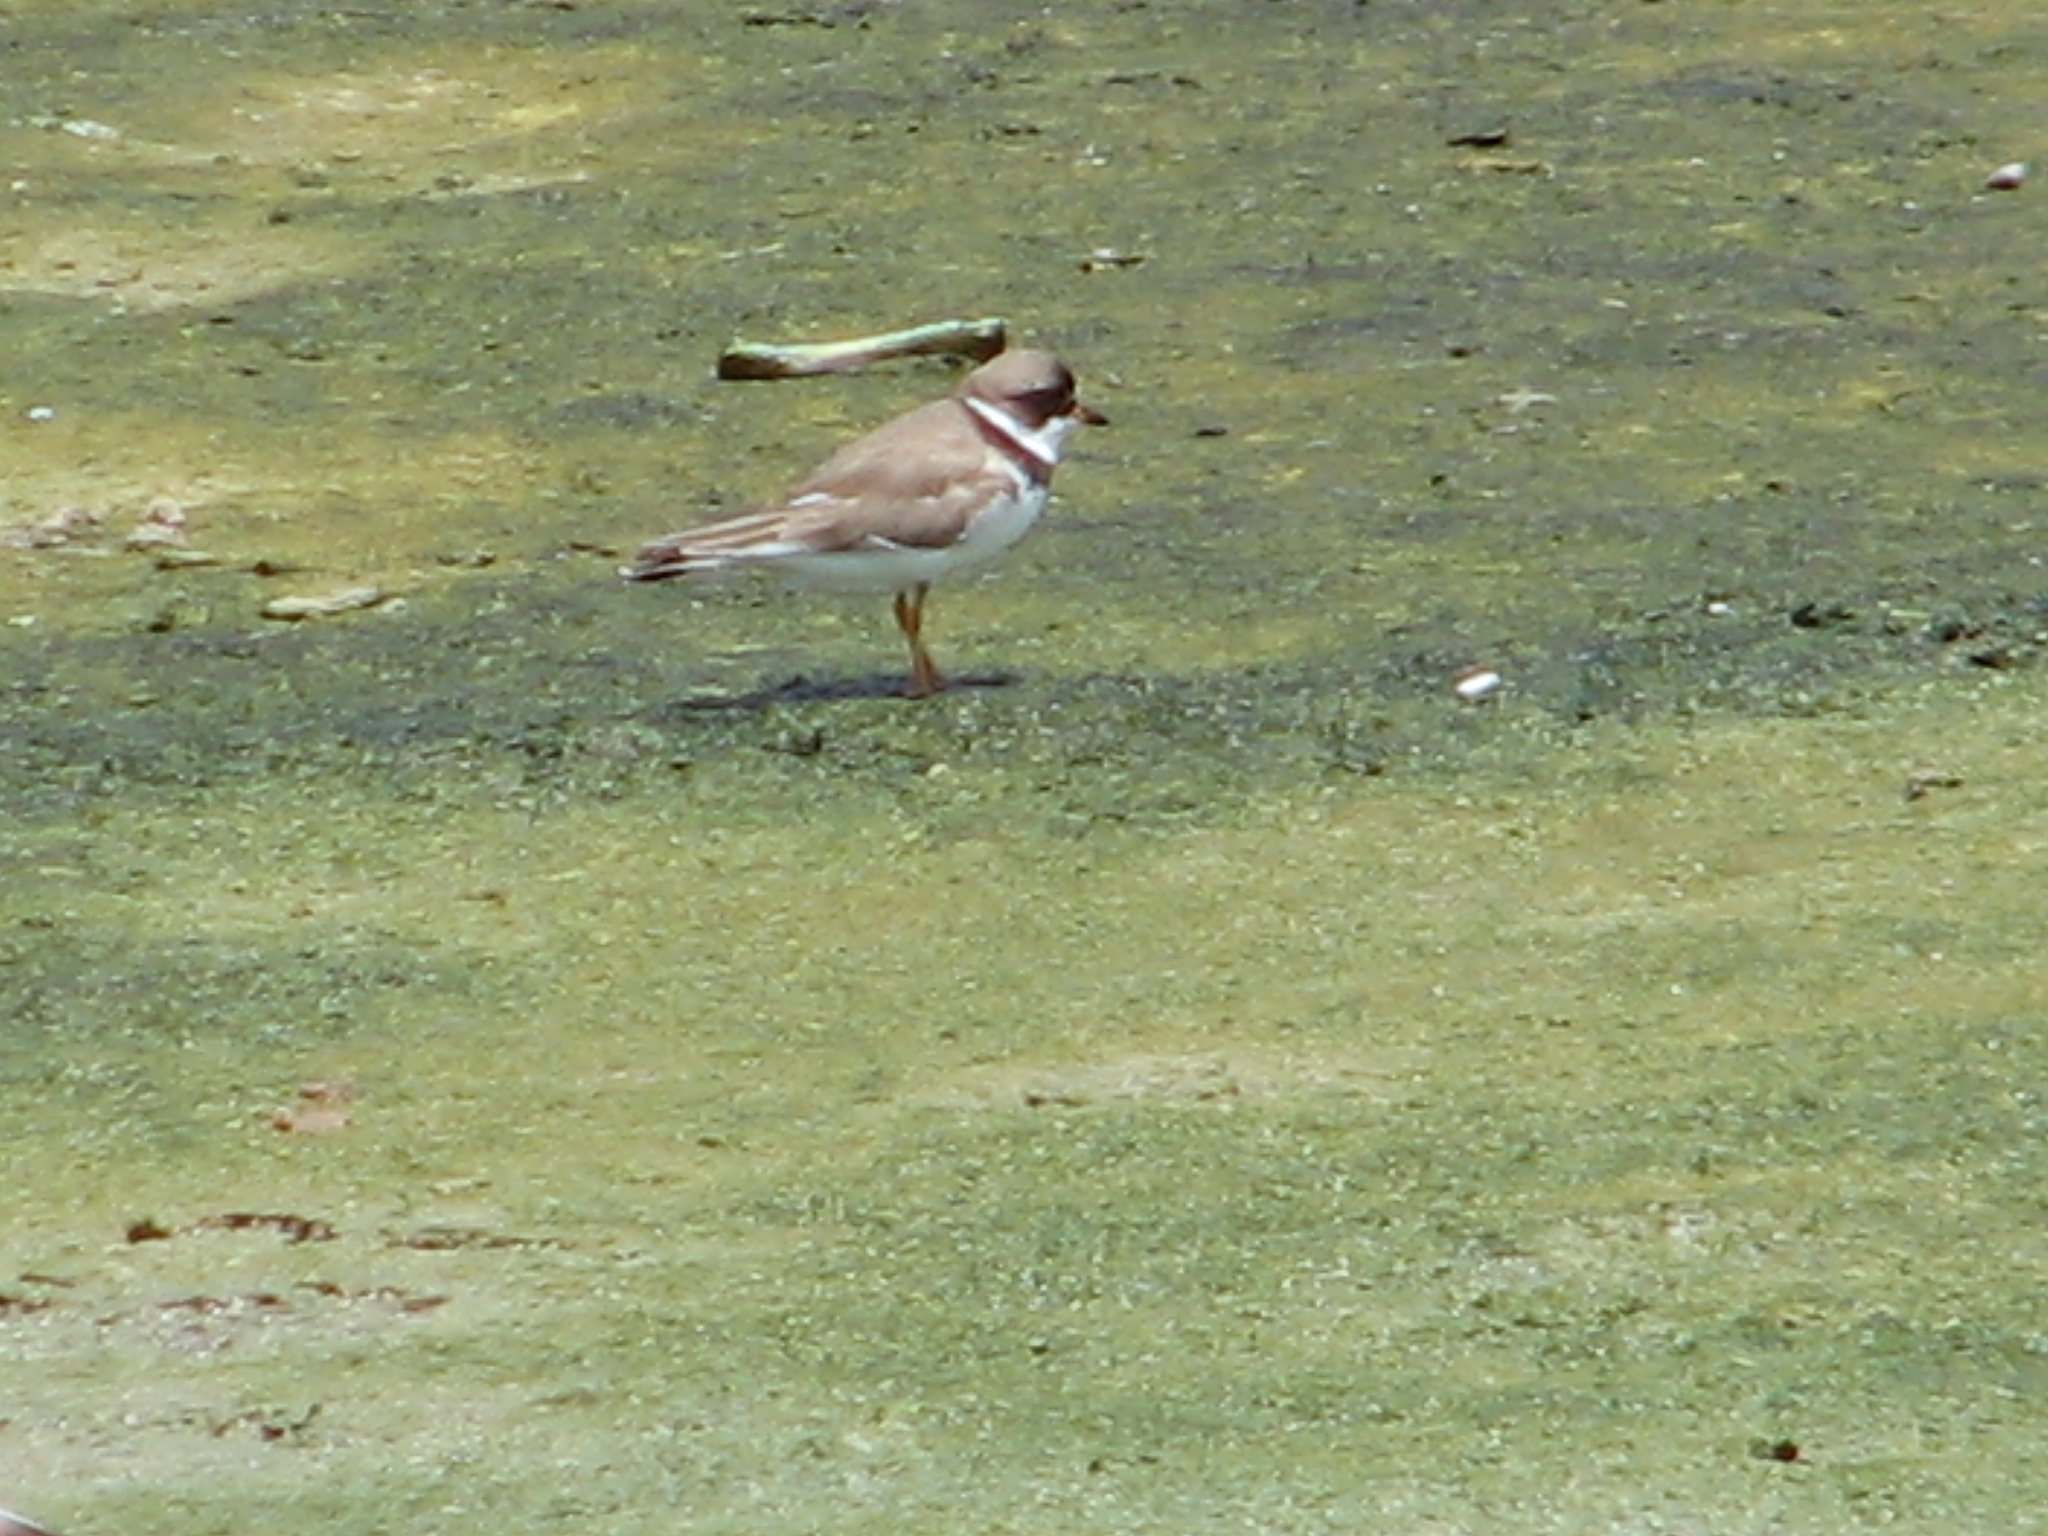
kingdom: Animalia
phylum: Chordata
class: Aves
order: Charadriiformes
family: Charadriidae
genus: Charadrius
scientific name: Charadrius semipalmatus
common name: Semipalmated plover
